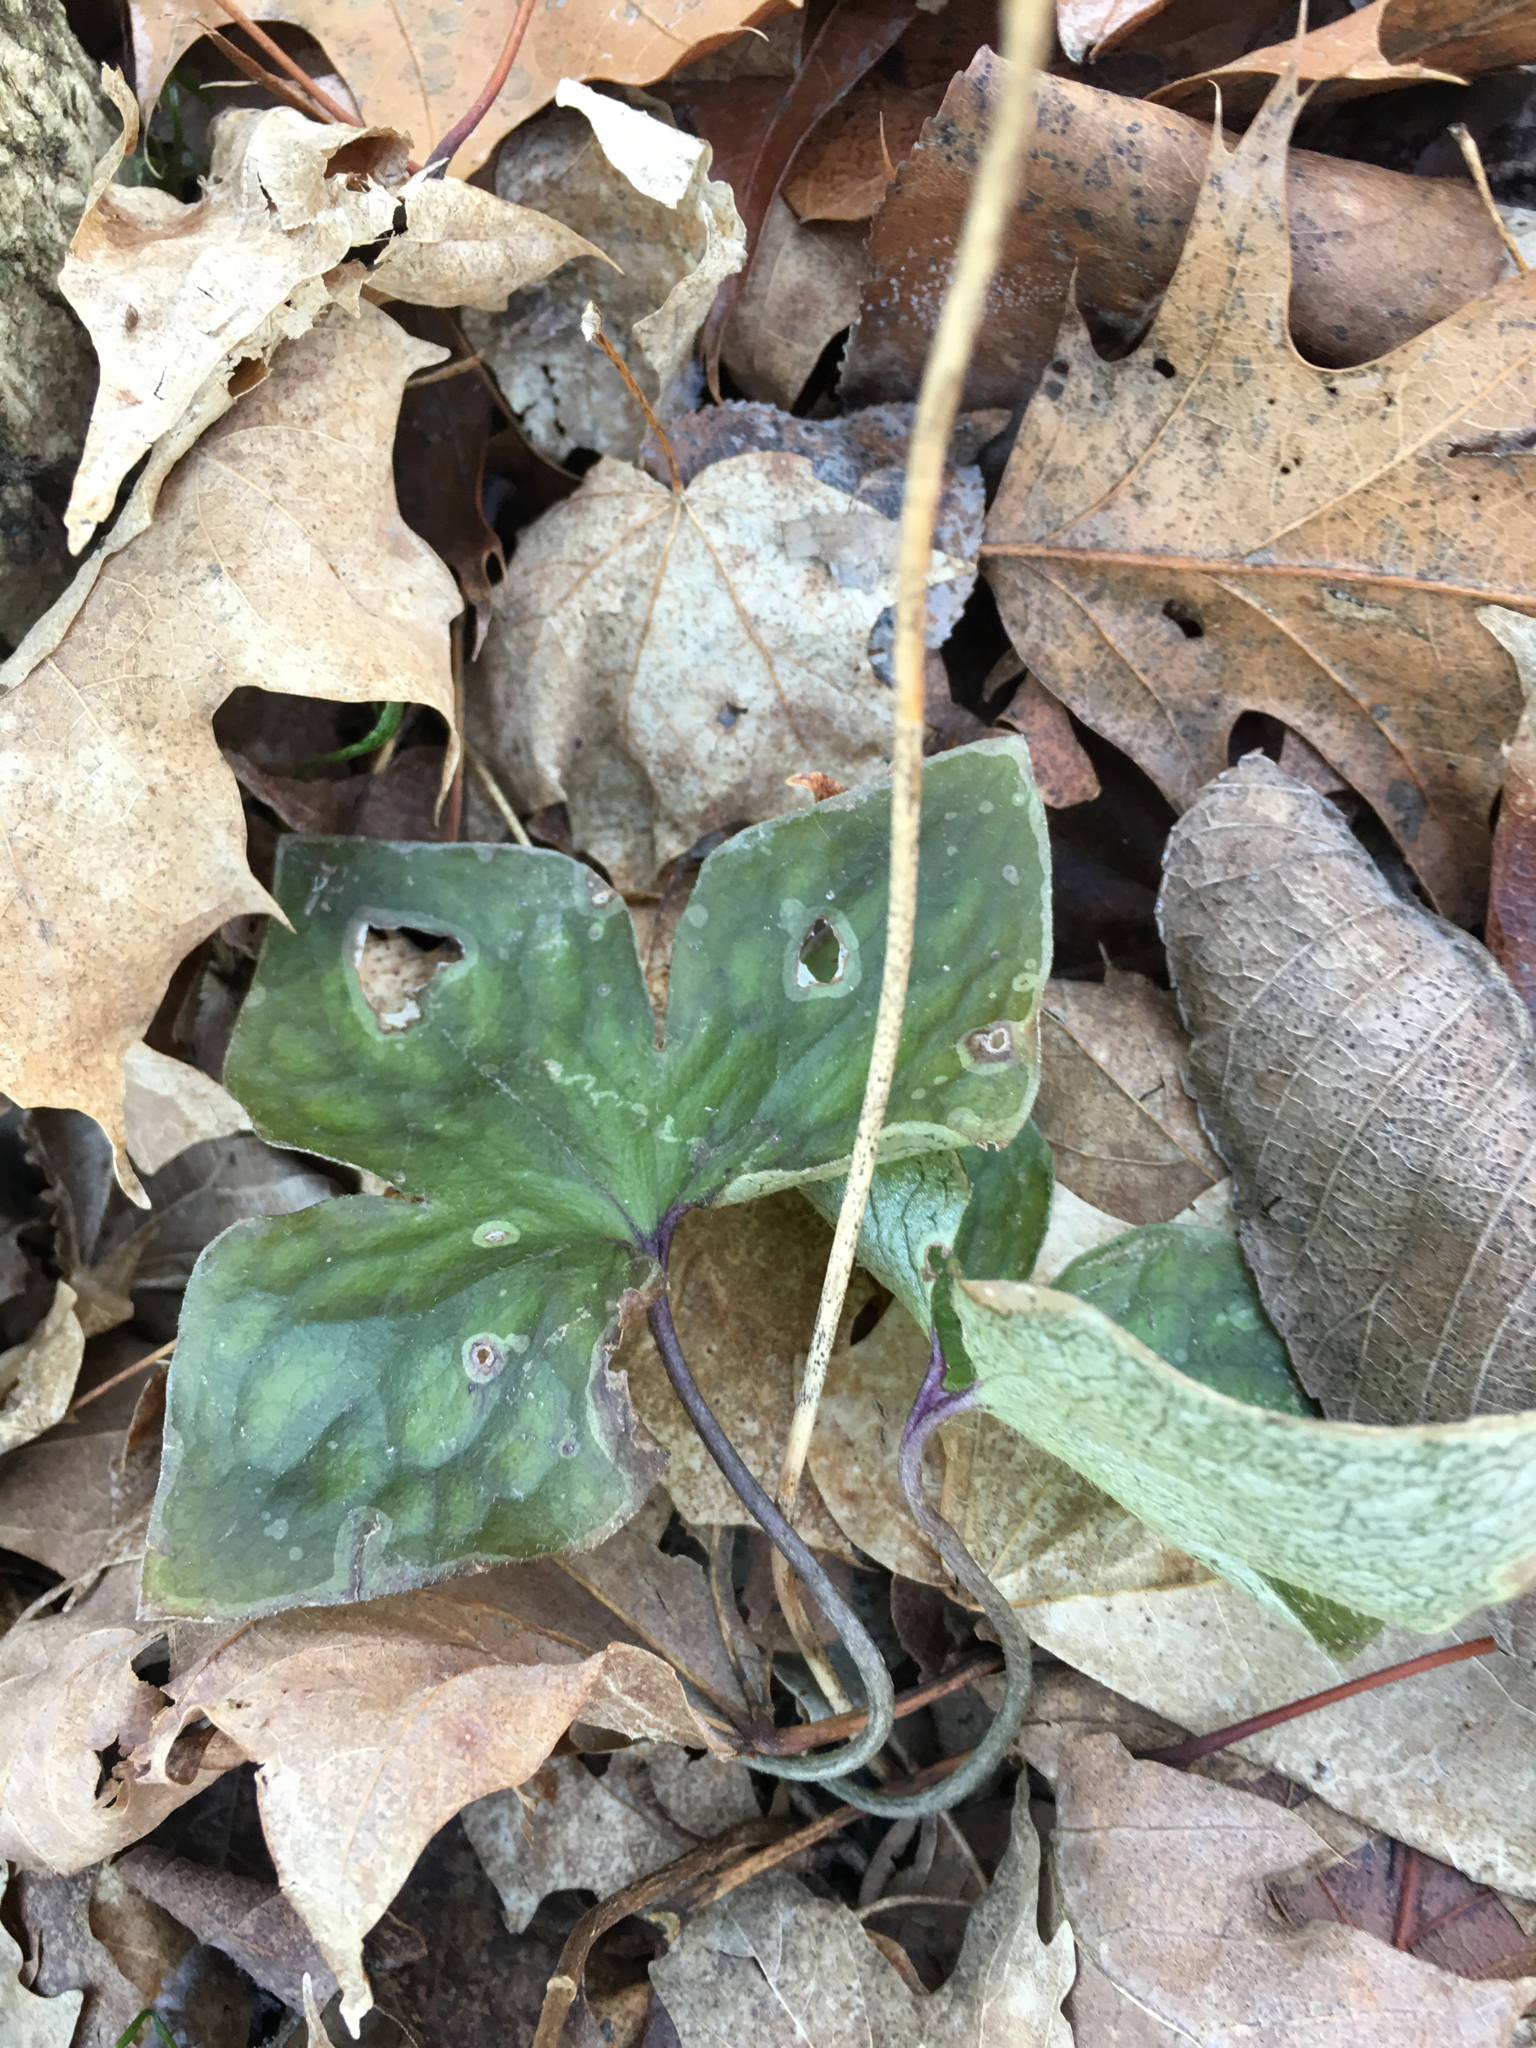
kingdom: Plantae
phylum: Tracheophyta
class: Magnoliopsida
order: Ranunculales
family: Ranunculaceae
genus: Hepatica
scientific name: Hepatica acutiloba
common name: Sharp-lobed hepatica
